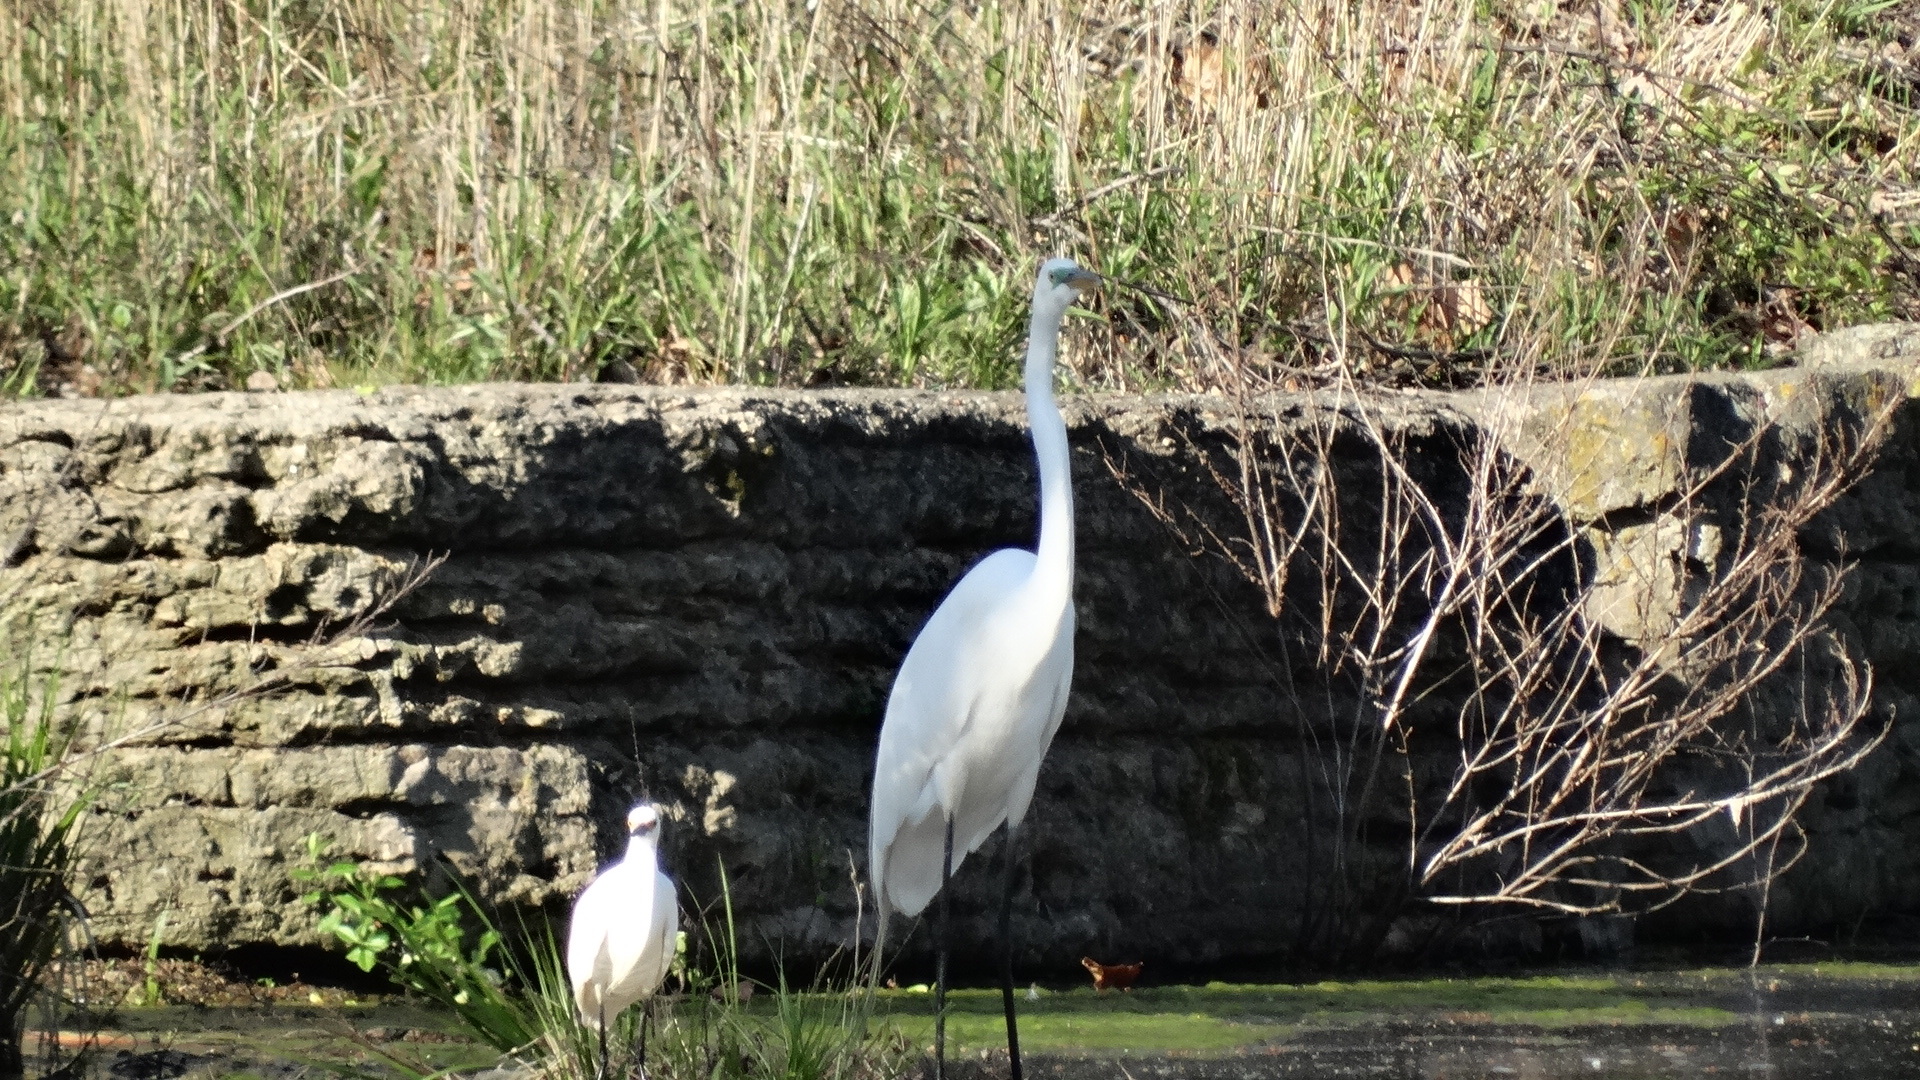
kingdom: Animalia
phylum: Chordata
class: Aves
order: Pelecaniformes
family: Ardeidae
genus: Egretta
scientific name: Egretta thula
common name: Snowy egret
